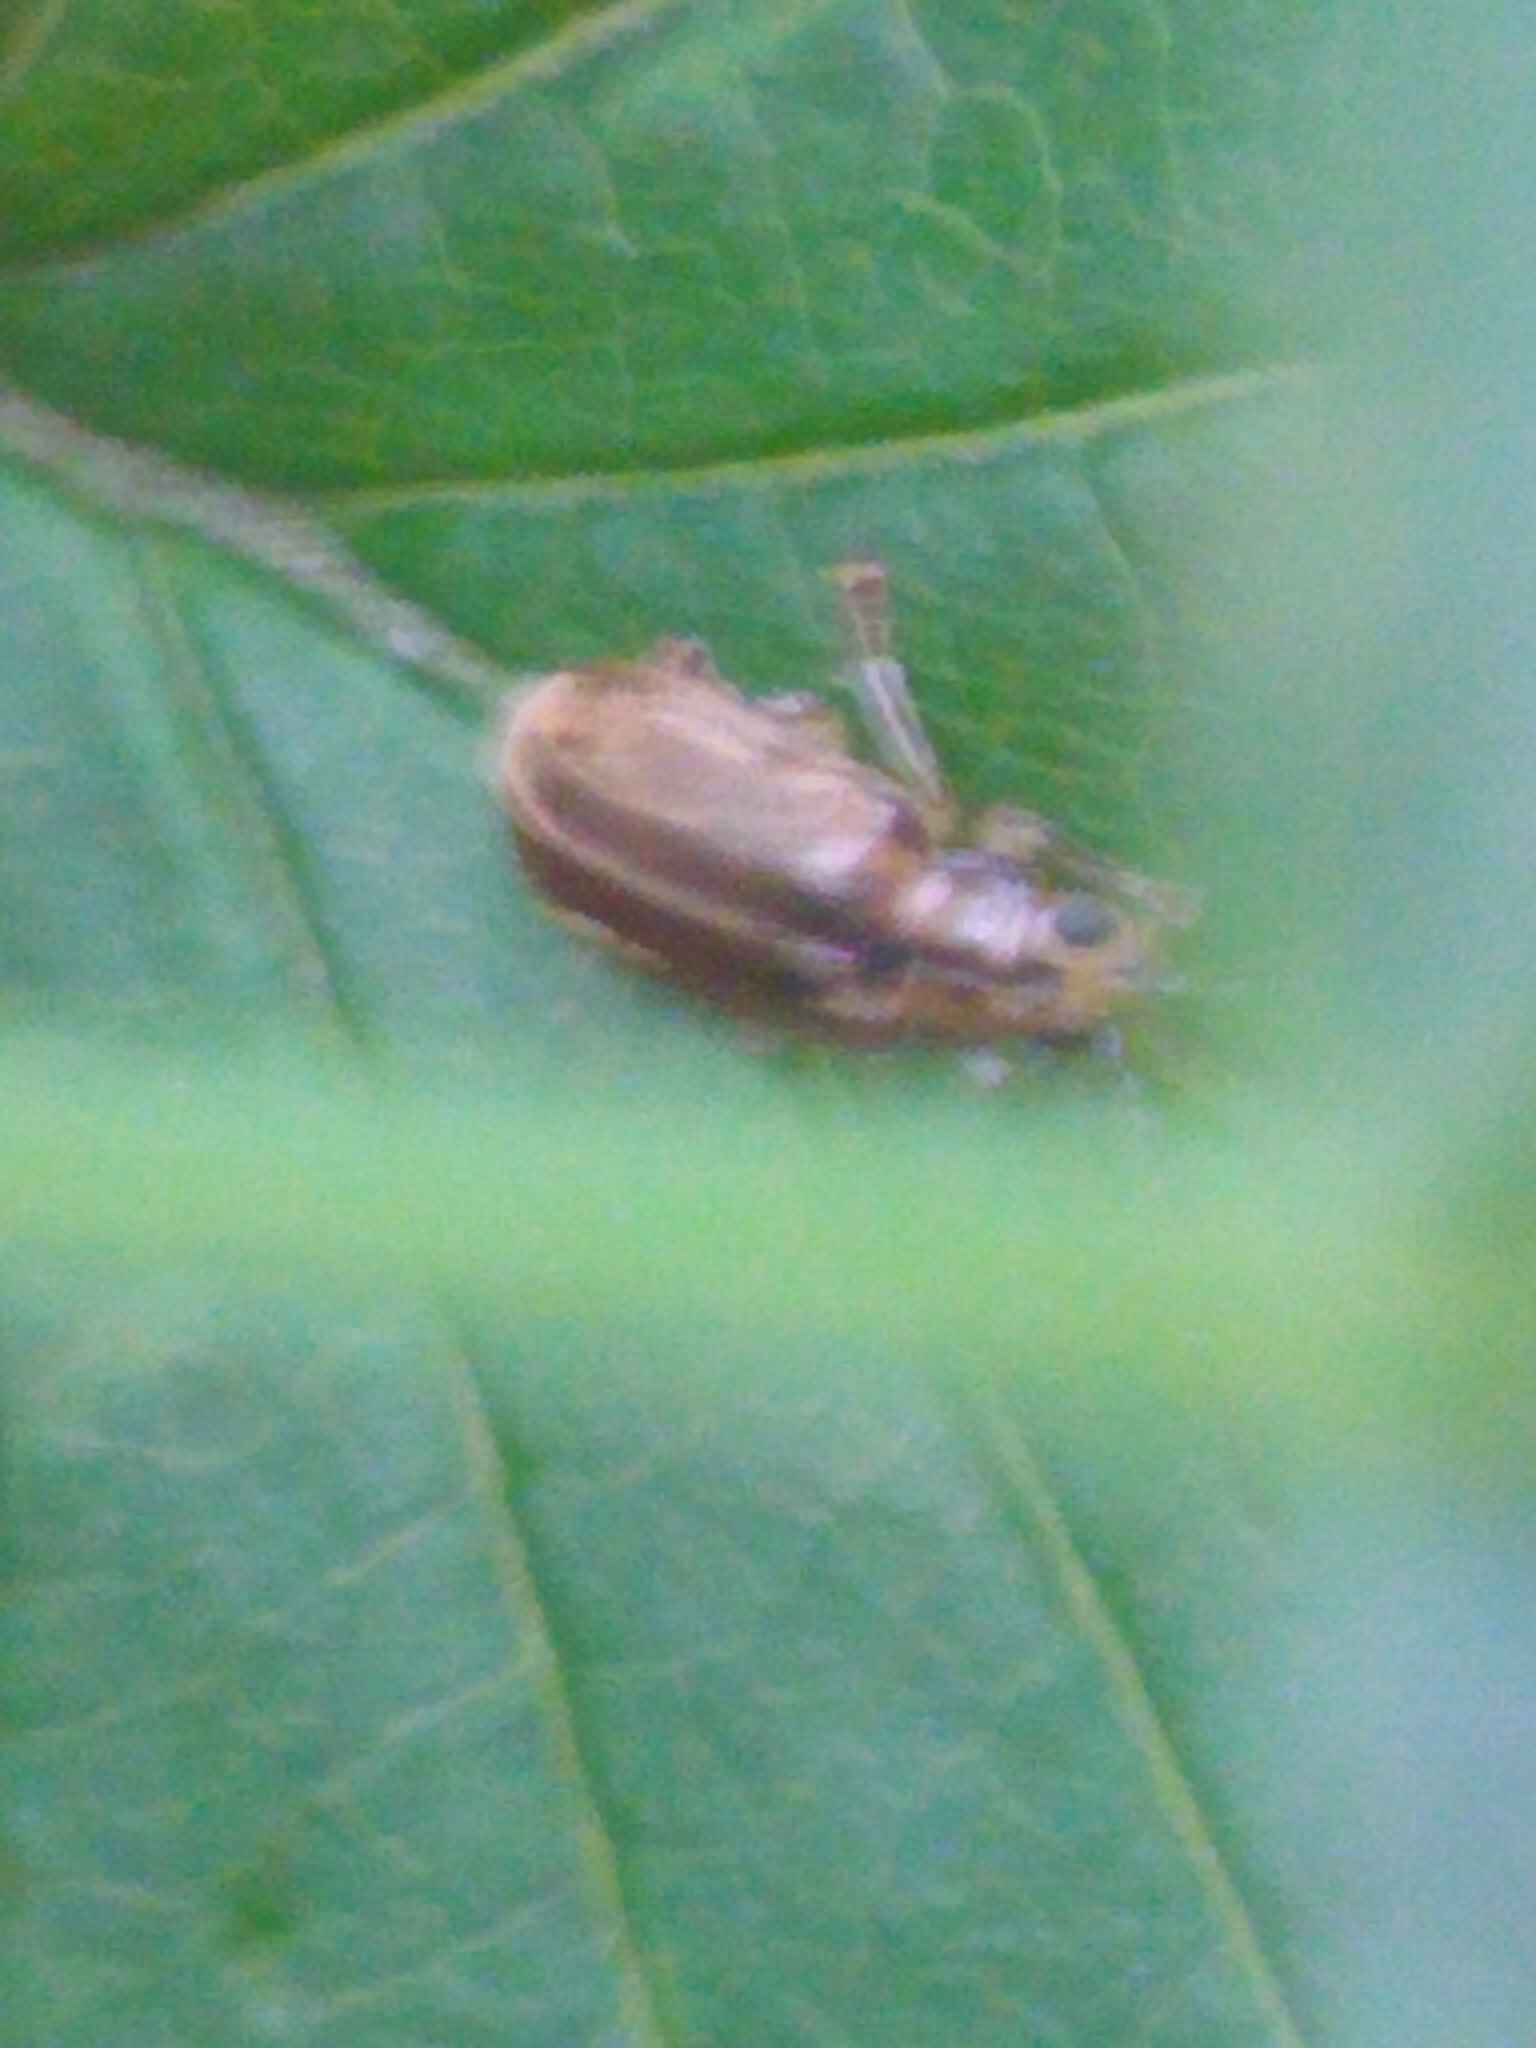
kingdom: Animalia
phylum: Arthropoda
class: Insecta
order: Coleoptera
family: Chrysomelidae
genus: Pyrrhalta
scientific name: Pyrrhalta viburni
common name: Guelder-rose leaf beetle
